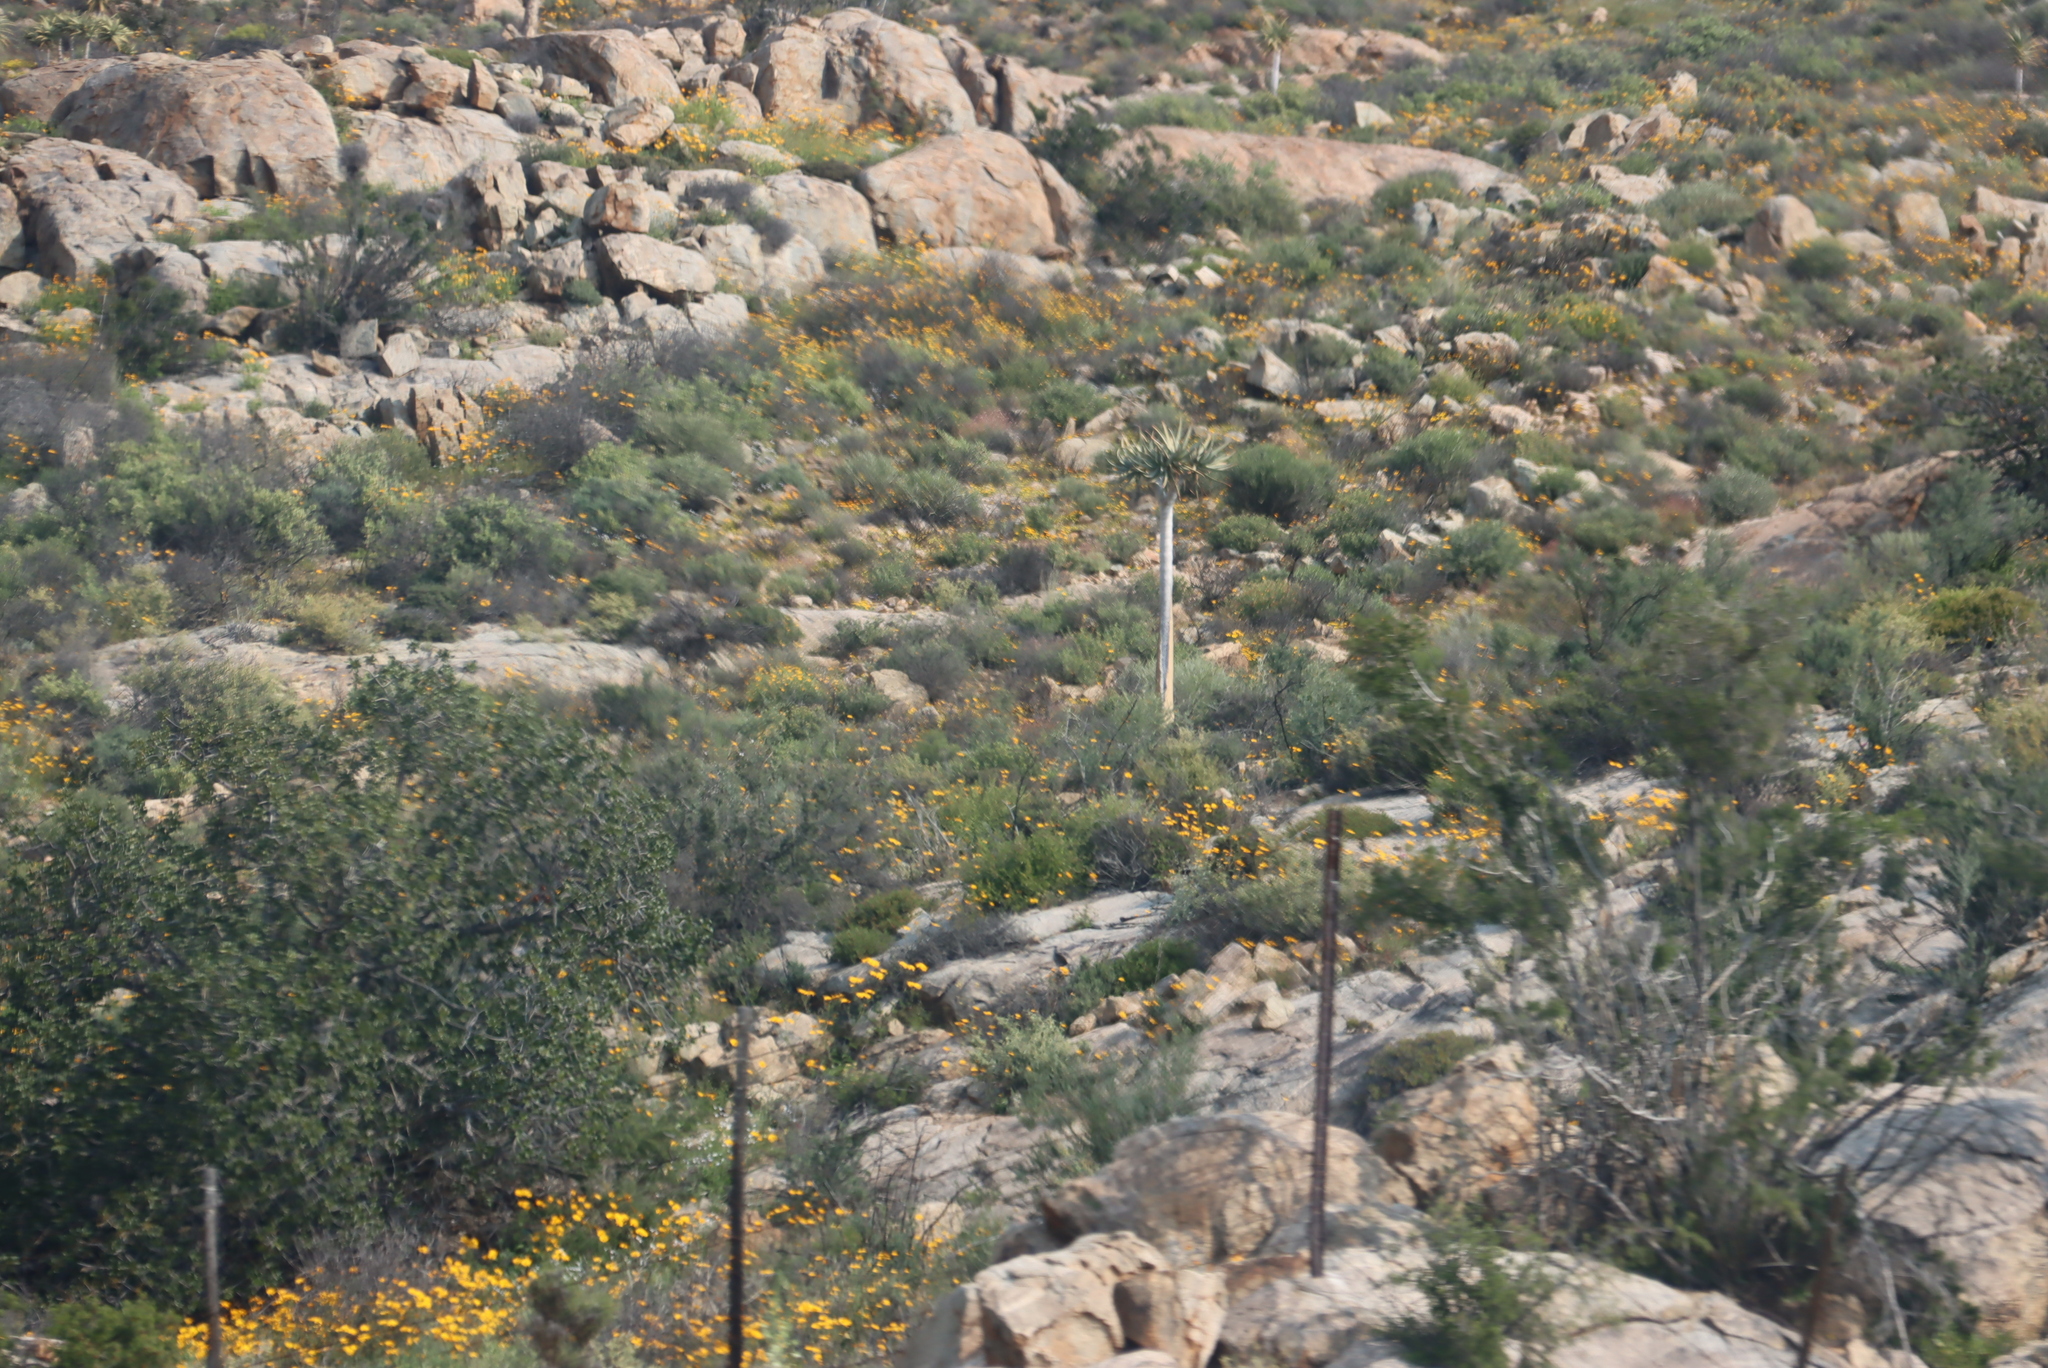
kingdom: Plantae
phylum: Tracheophyta
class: Liliopsida
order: Asparagales
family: Asphodelaceae
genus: Aloidendron
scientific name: Aloidendron dichotomum
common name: Quiver tree
